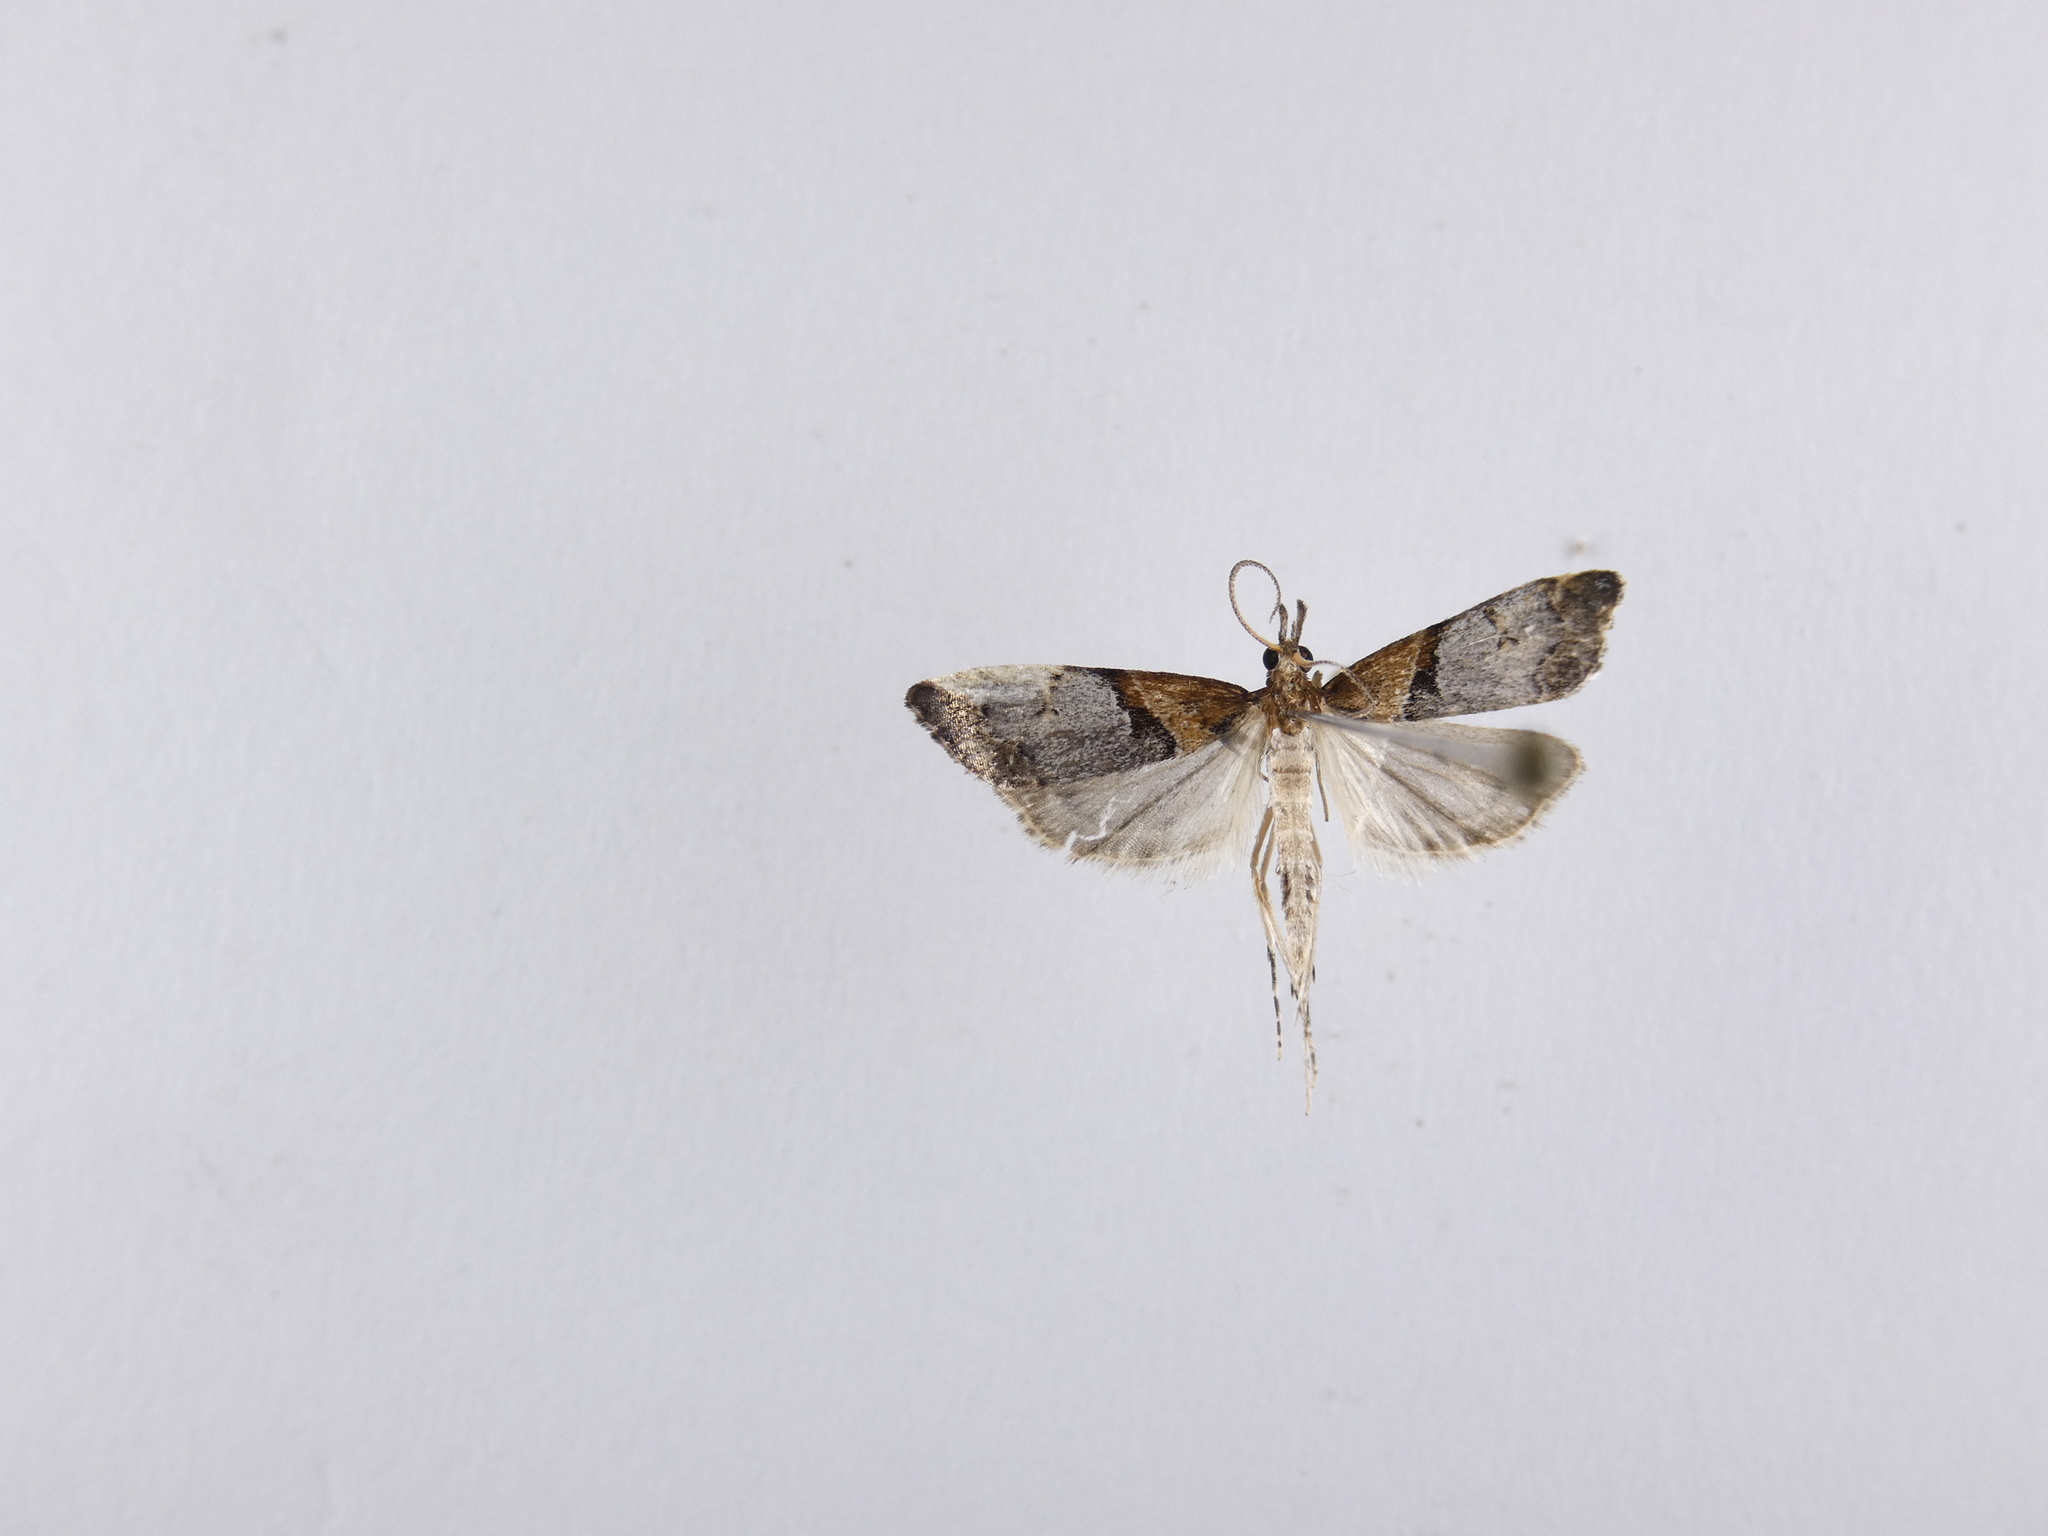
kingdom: Animalia
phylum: Arthropoda
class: Insecta
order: Lepidoptera
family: Crambidae
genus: Antiscopa
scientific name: Antiscopa epicomia
